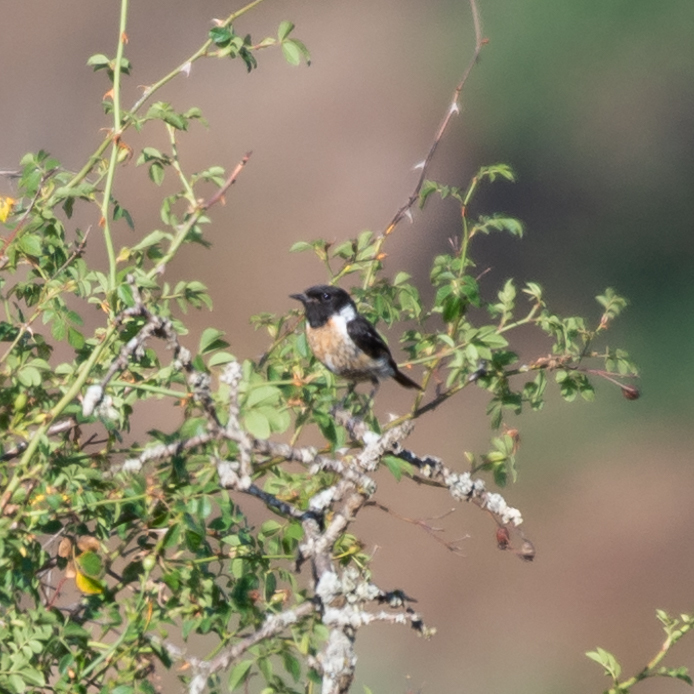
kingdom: Animalia
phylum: Chordata
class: Aves
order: Passeriformes
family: Muscicapidae
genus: Saxicola
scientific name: Saxicola rubicola
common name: European stonechat
